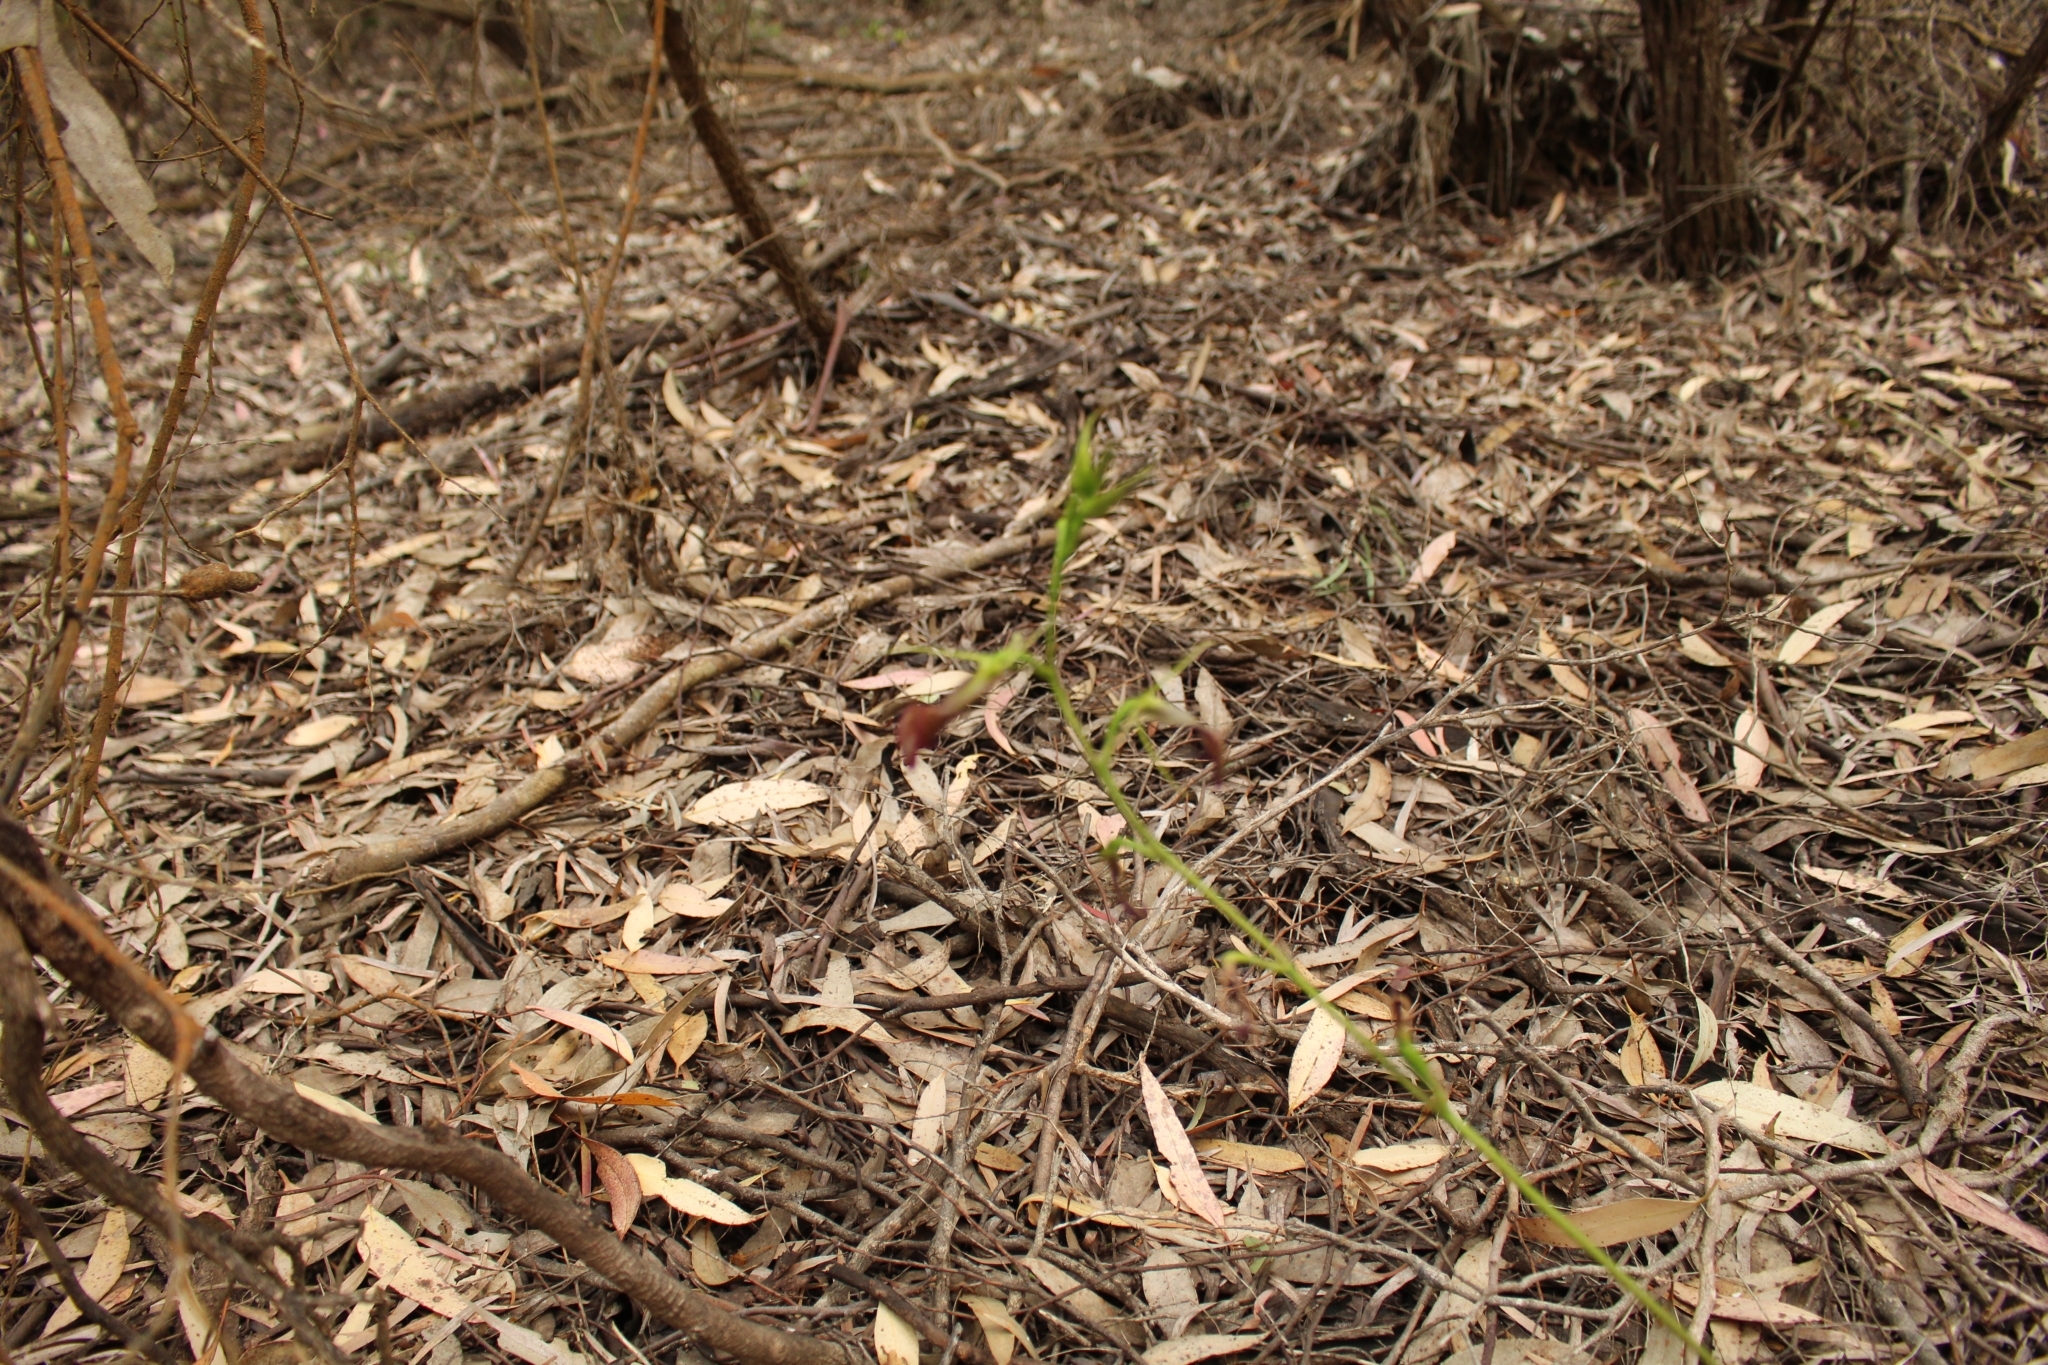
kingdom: Plantae
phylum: Tracheophyta
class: Liliopsida
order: Asparagales
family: Orchidaceae
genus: Cryptostylis
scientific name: Cryptostylis ovata
